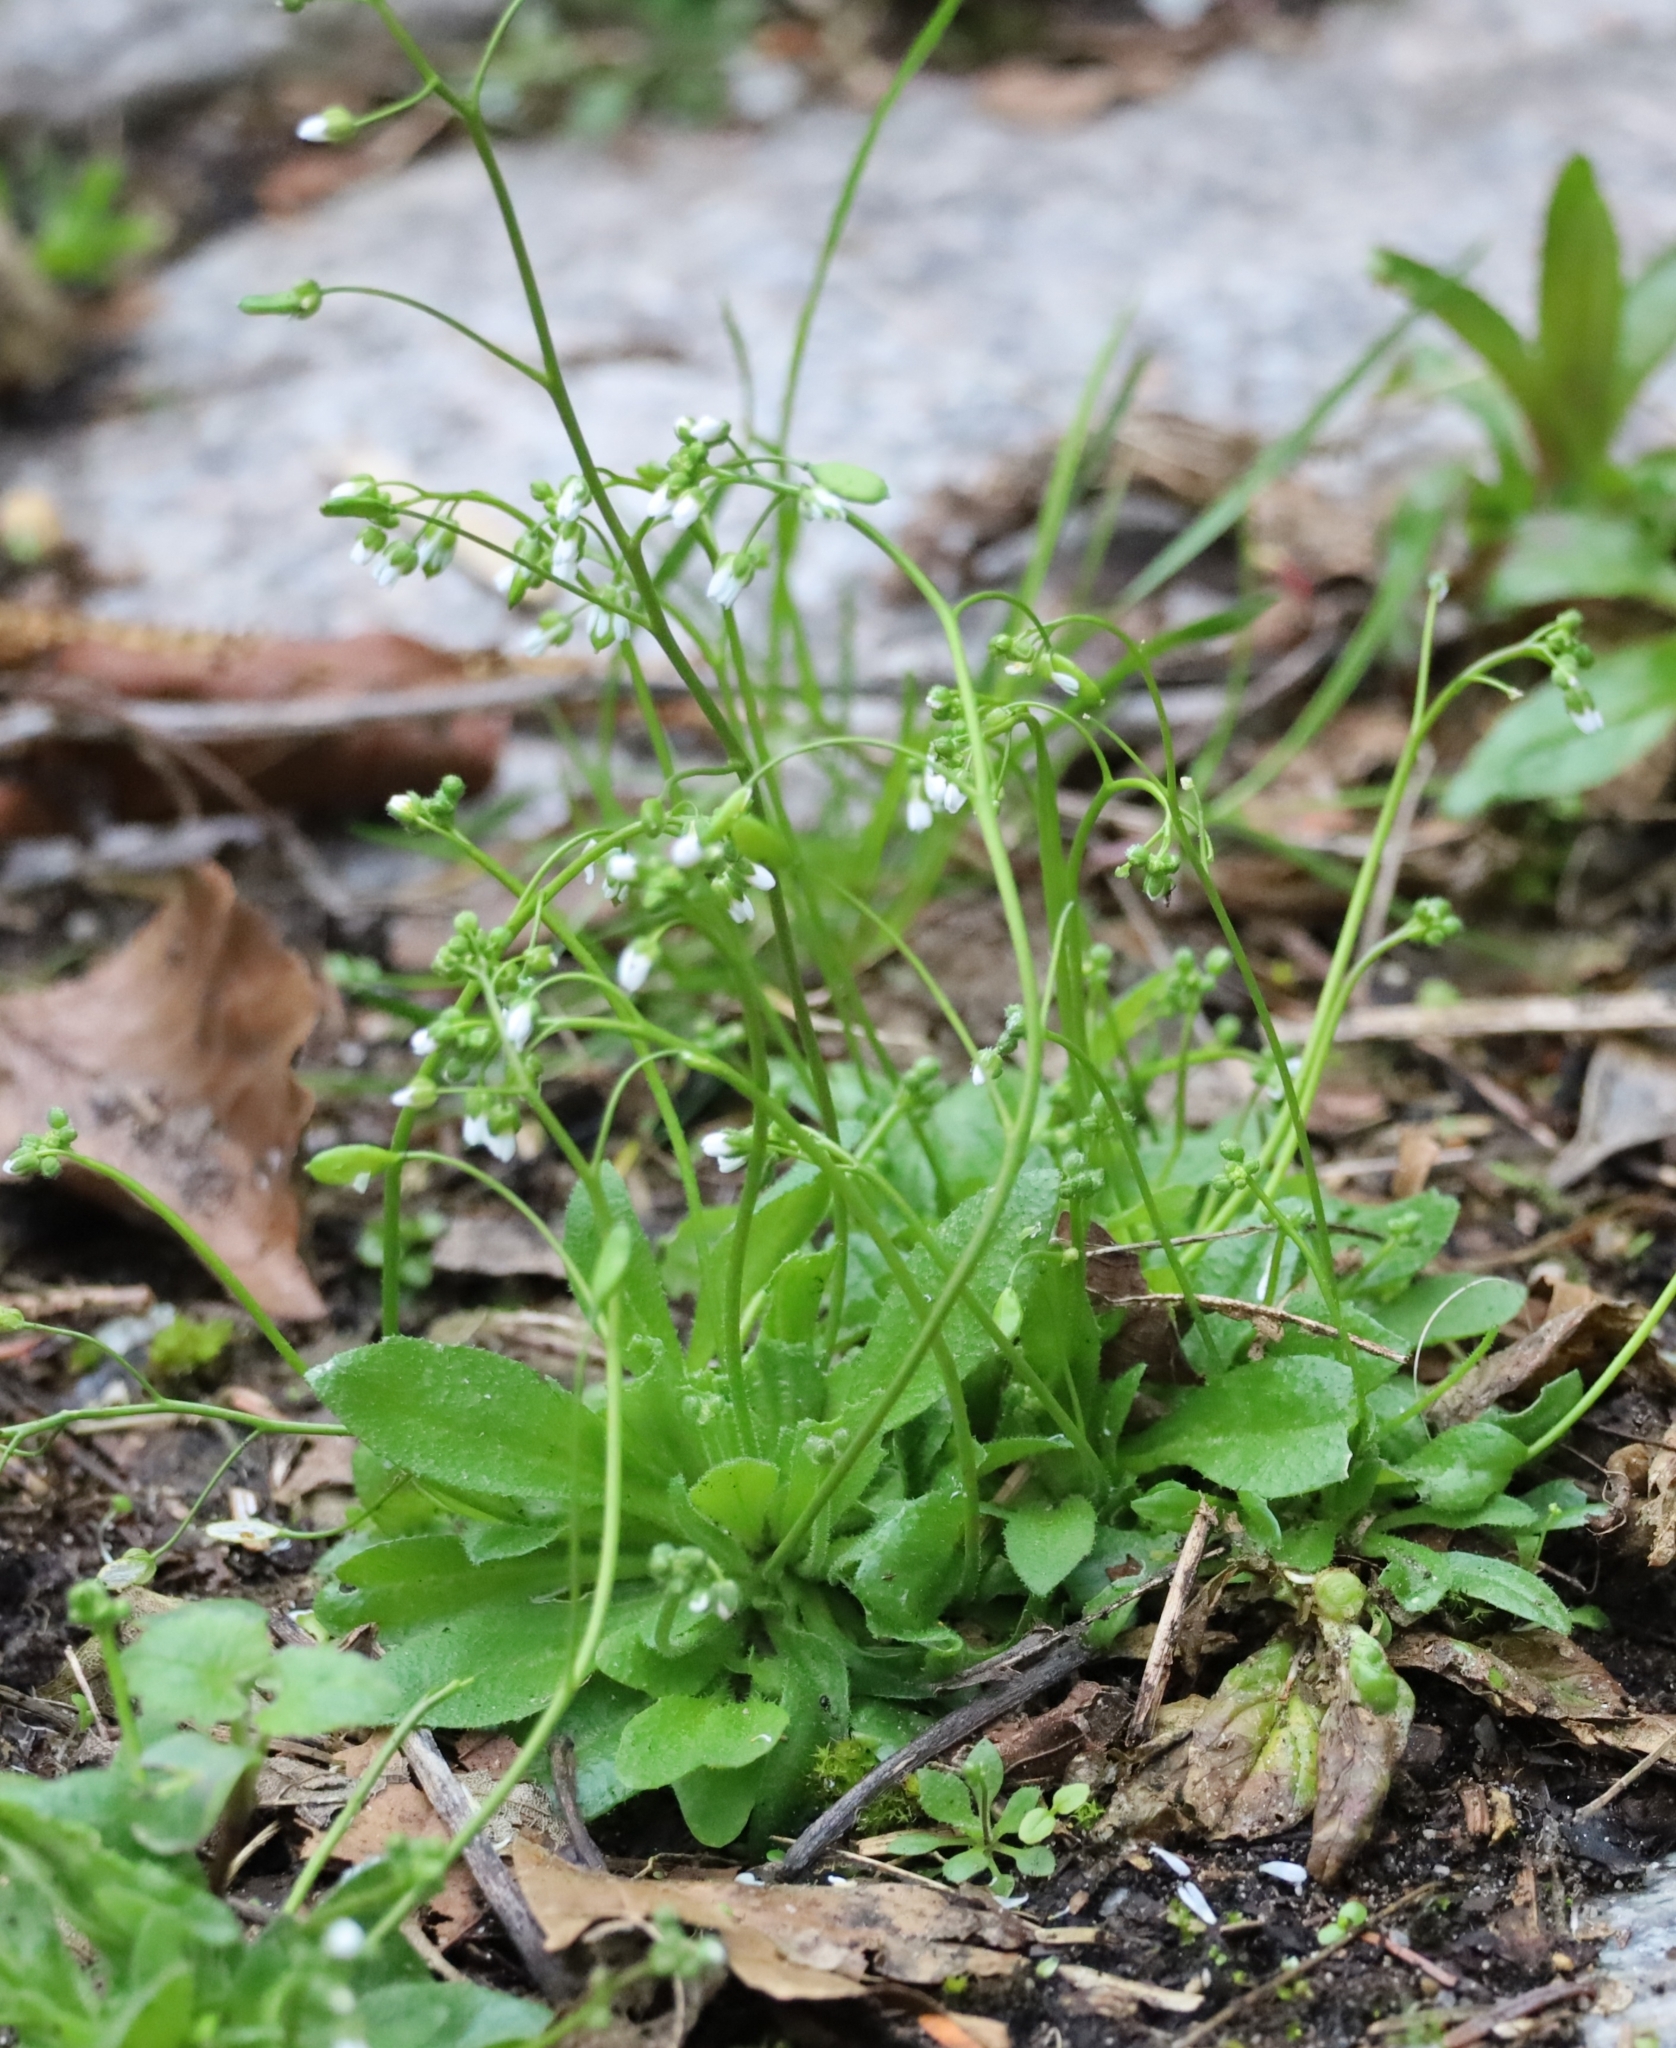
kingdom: Plantae
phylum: Tracheophyta
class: Magnoliopsida
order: Brassicales
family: Brassicaceae
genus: Draba
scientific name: Draba verna
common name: Spring draba
